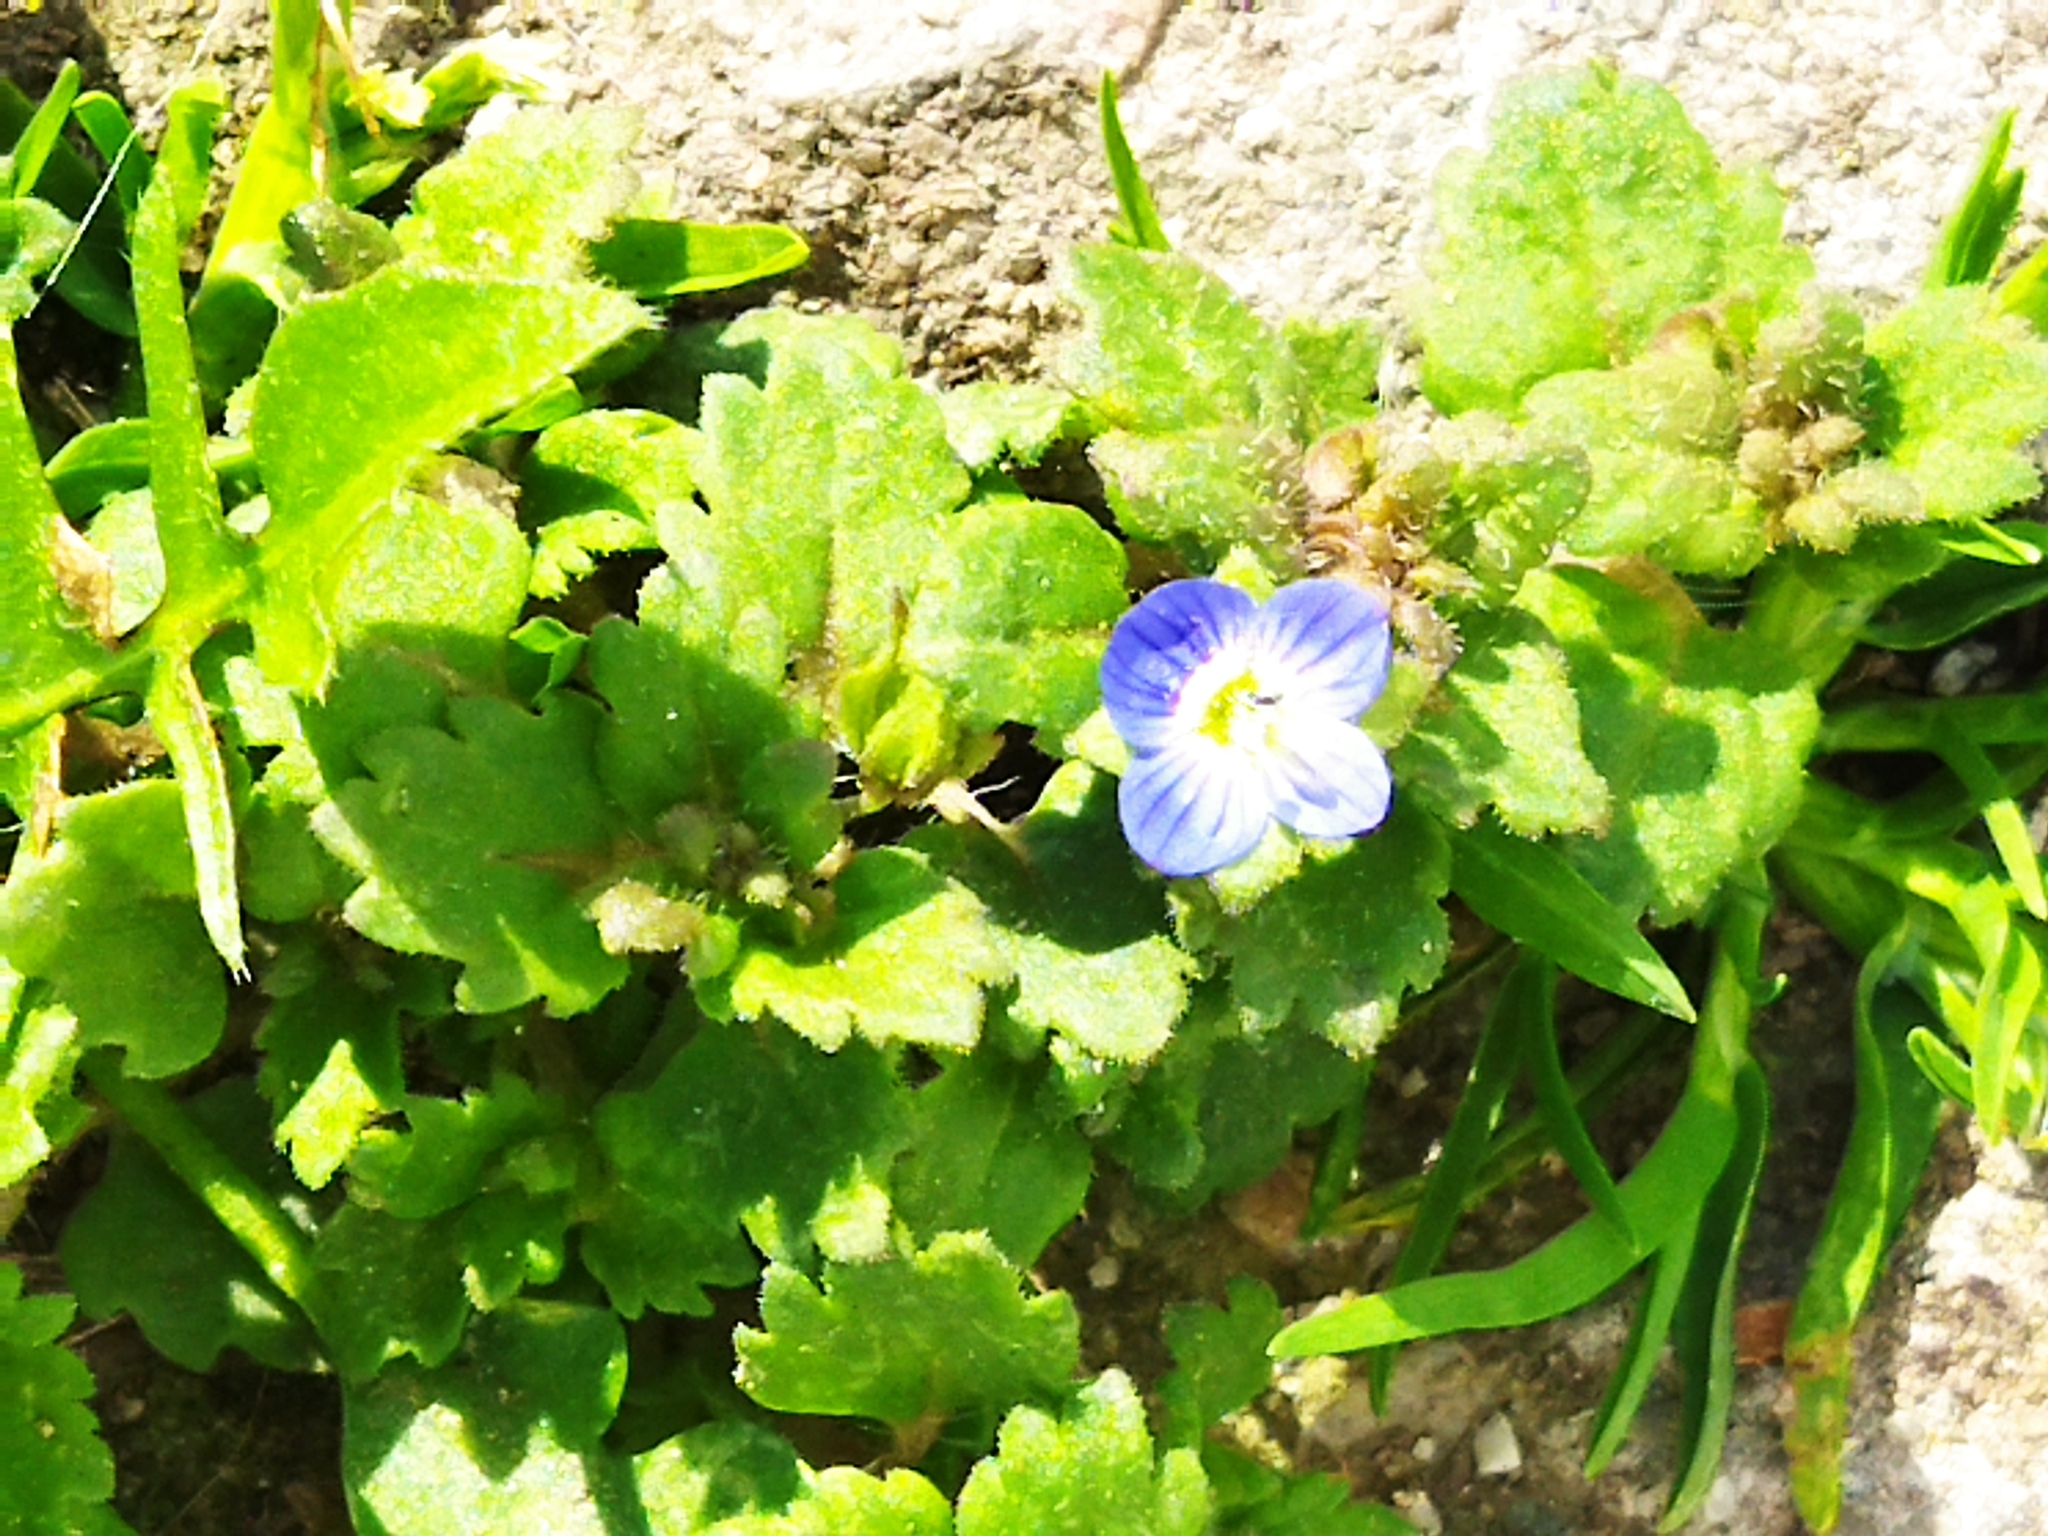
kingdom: Plantae
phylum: Tracheophyta
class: Magnoliopsida
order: Lamiales
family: Plantaginaceae
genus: Veronica
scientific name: Veronica polita
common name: Grey field-speedwell
